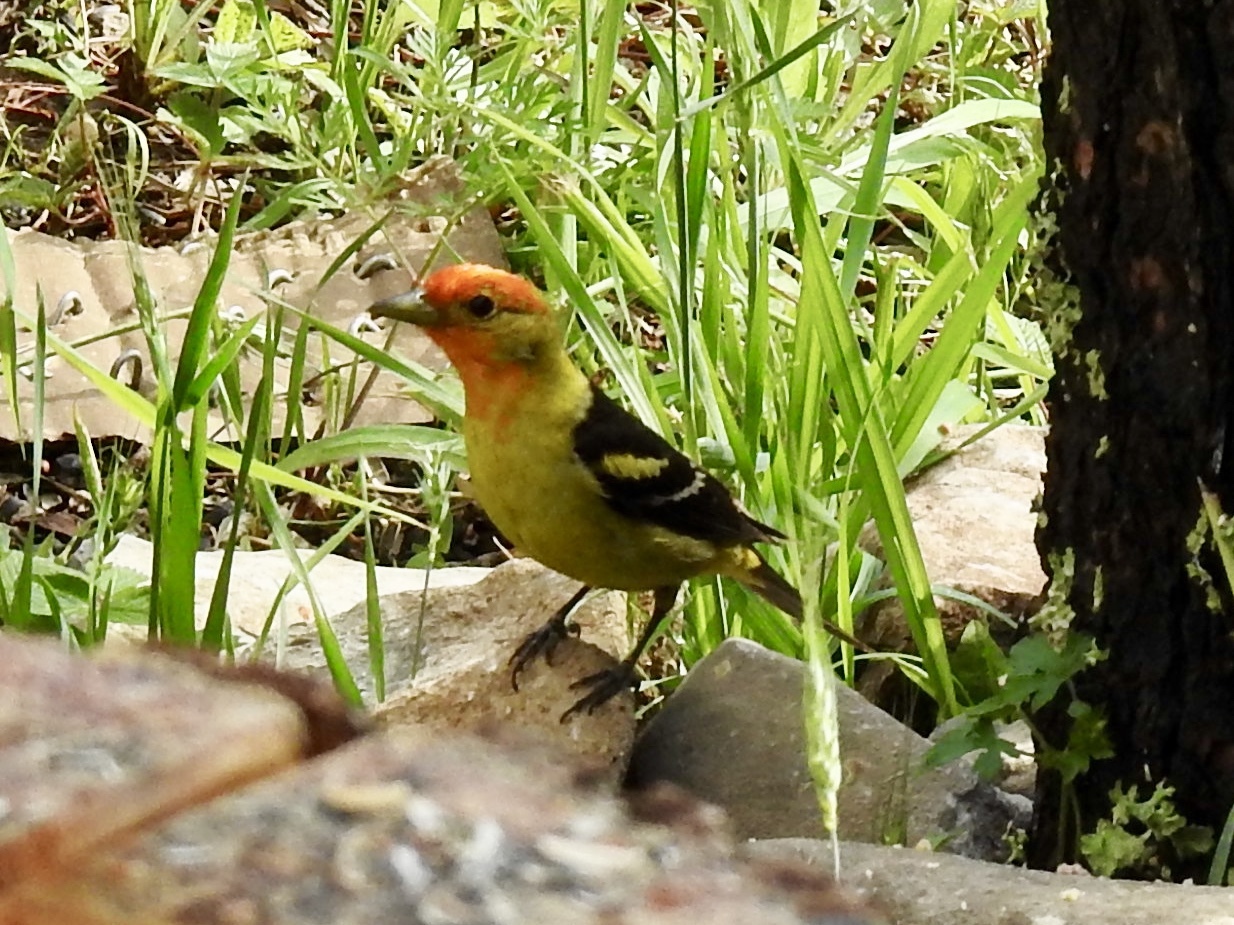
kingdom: Animalia
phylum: Chordata
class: Aves
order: Passeriformes
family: Cardinalidae
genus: Piranga
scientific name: Piranga ludoviciana
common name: Western tanager
